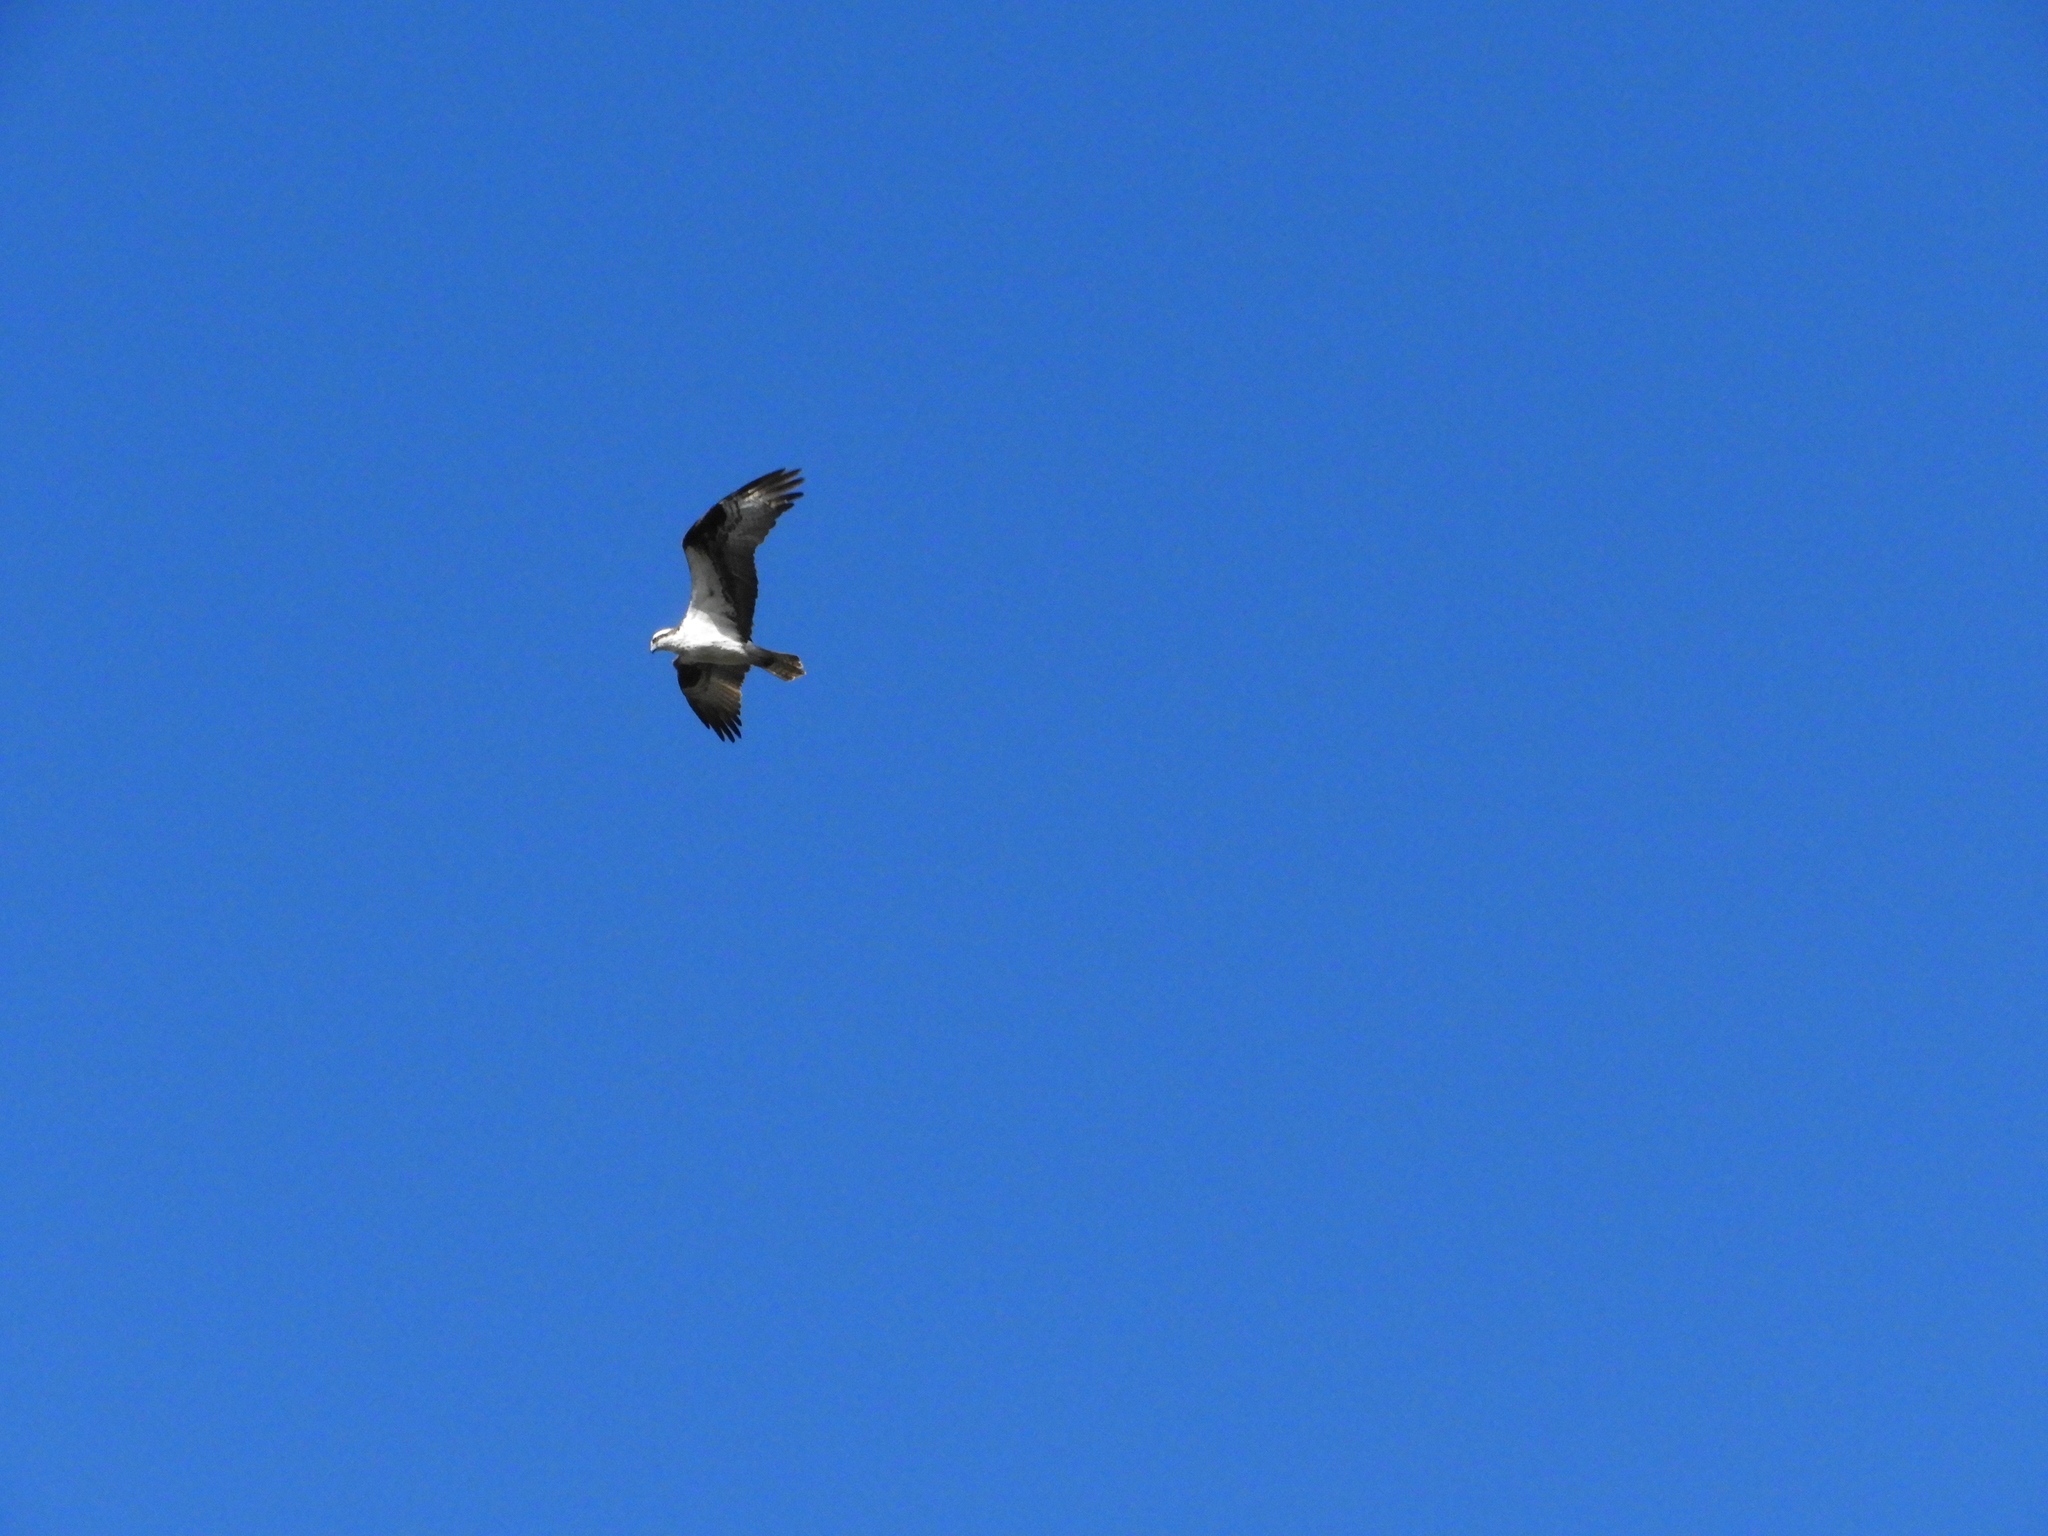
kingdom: Animalia
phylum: Chordata
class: Aves
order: Accipitriformes
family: Pandionidae
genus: Pandion
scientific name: Pandion haliaetus
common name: Osprey
